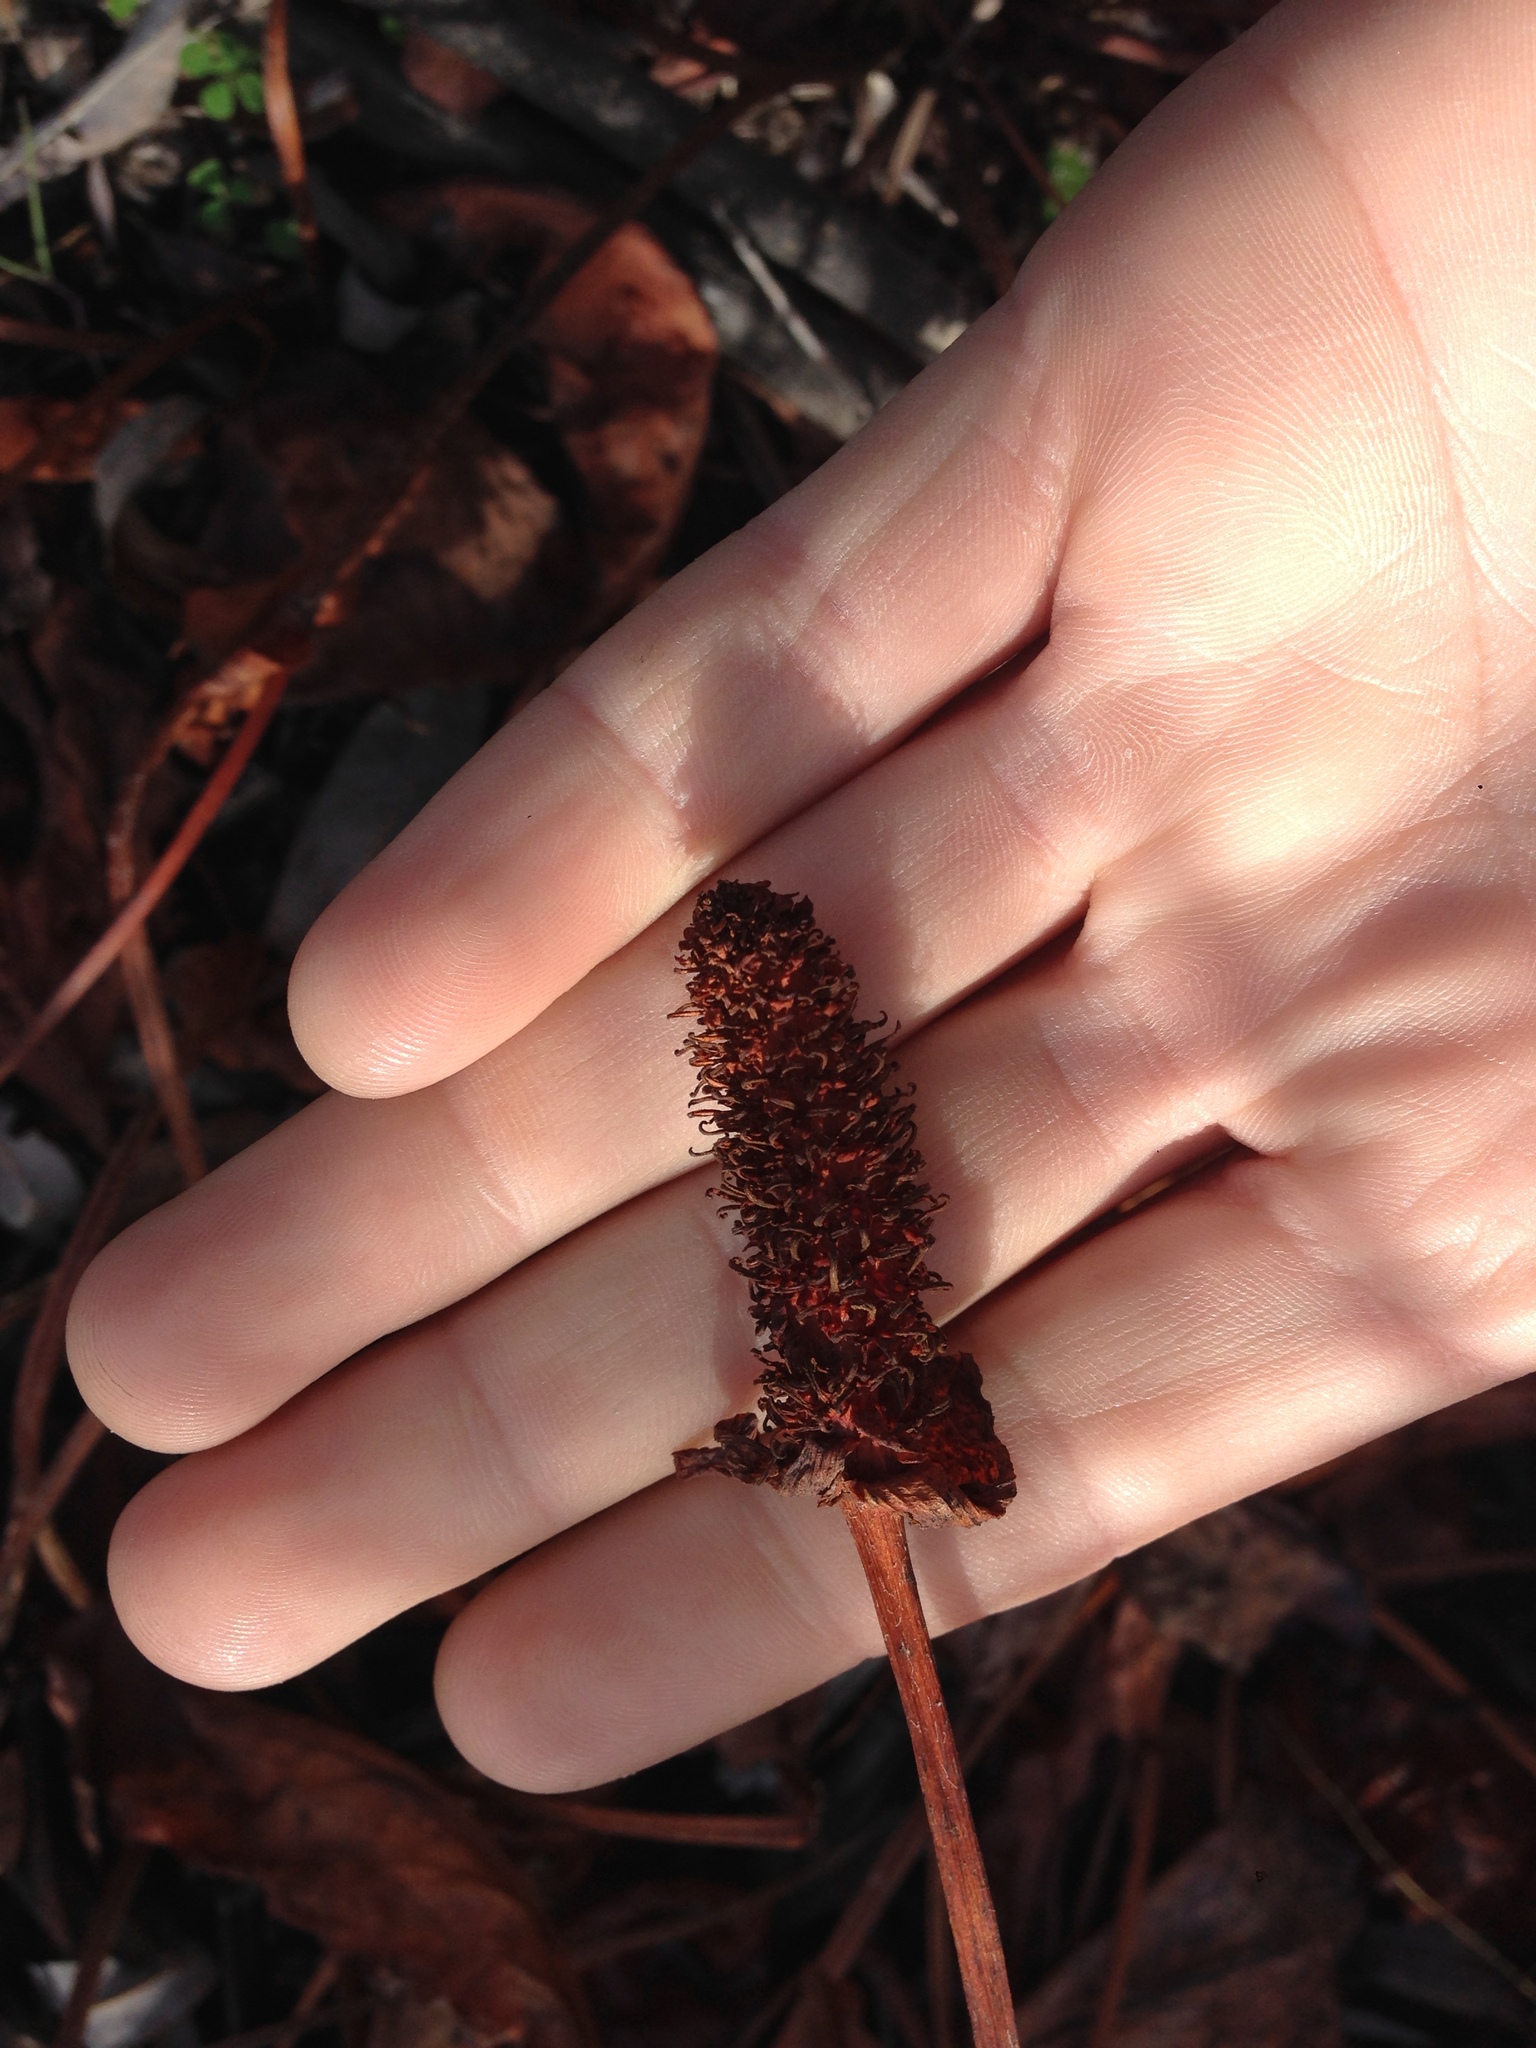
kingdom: Plantae
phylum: Tracheophyta
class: Magnoliopsida
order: Piperales
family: Saururaceae
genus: Anemopsis
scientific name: Anemopsis californica
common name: Apache-beads
